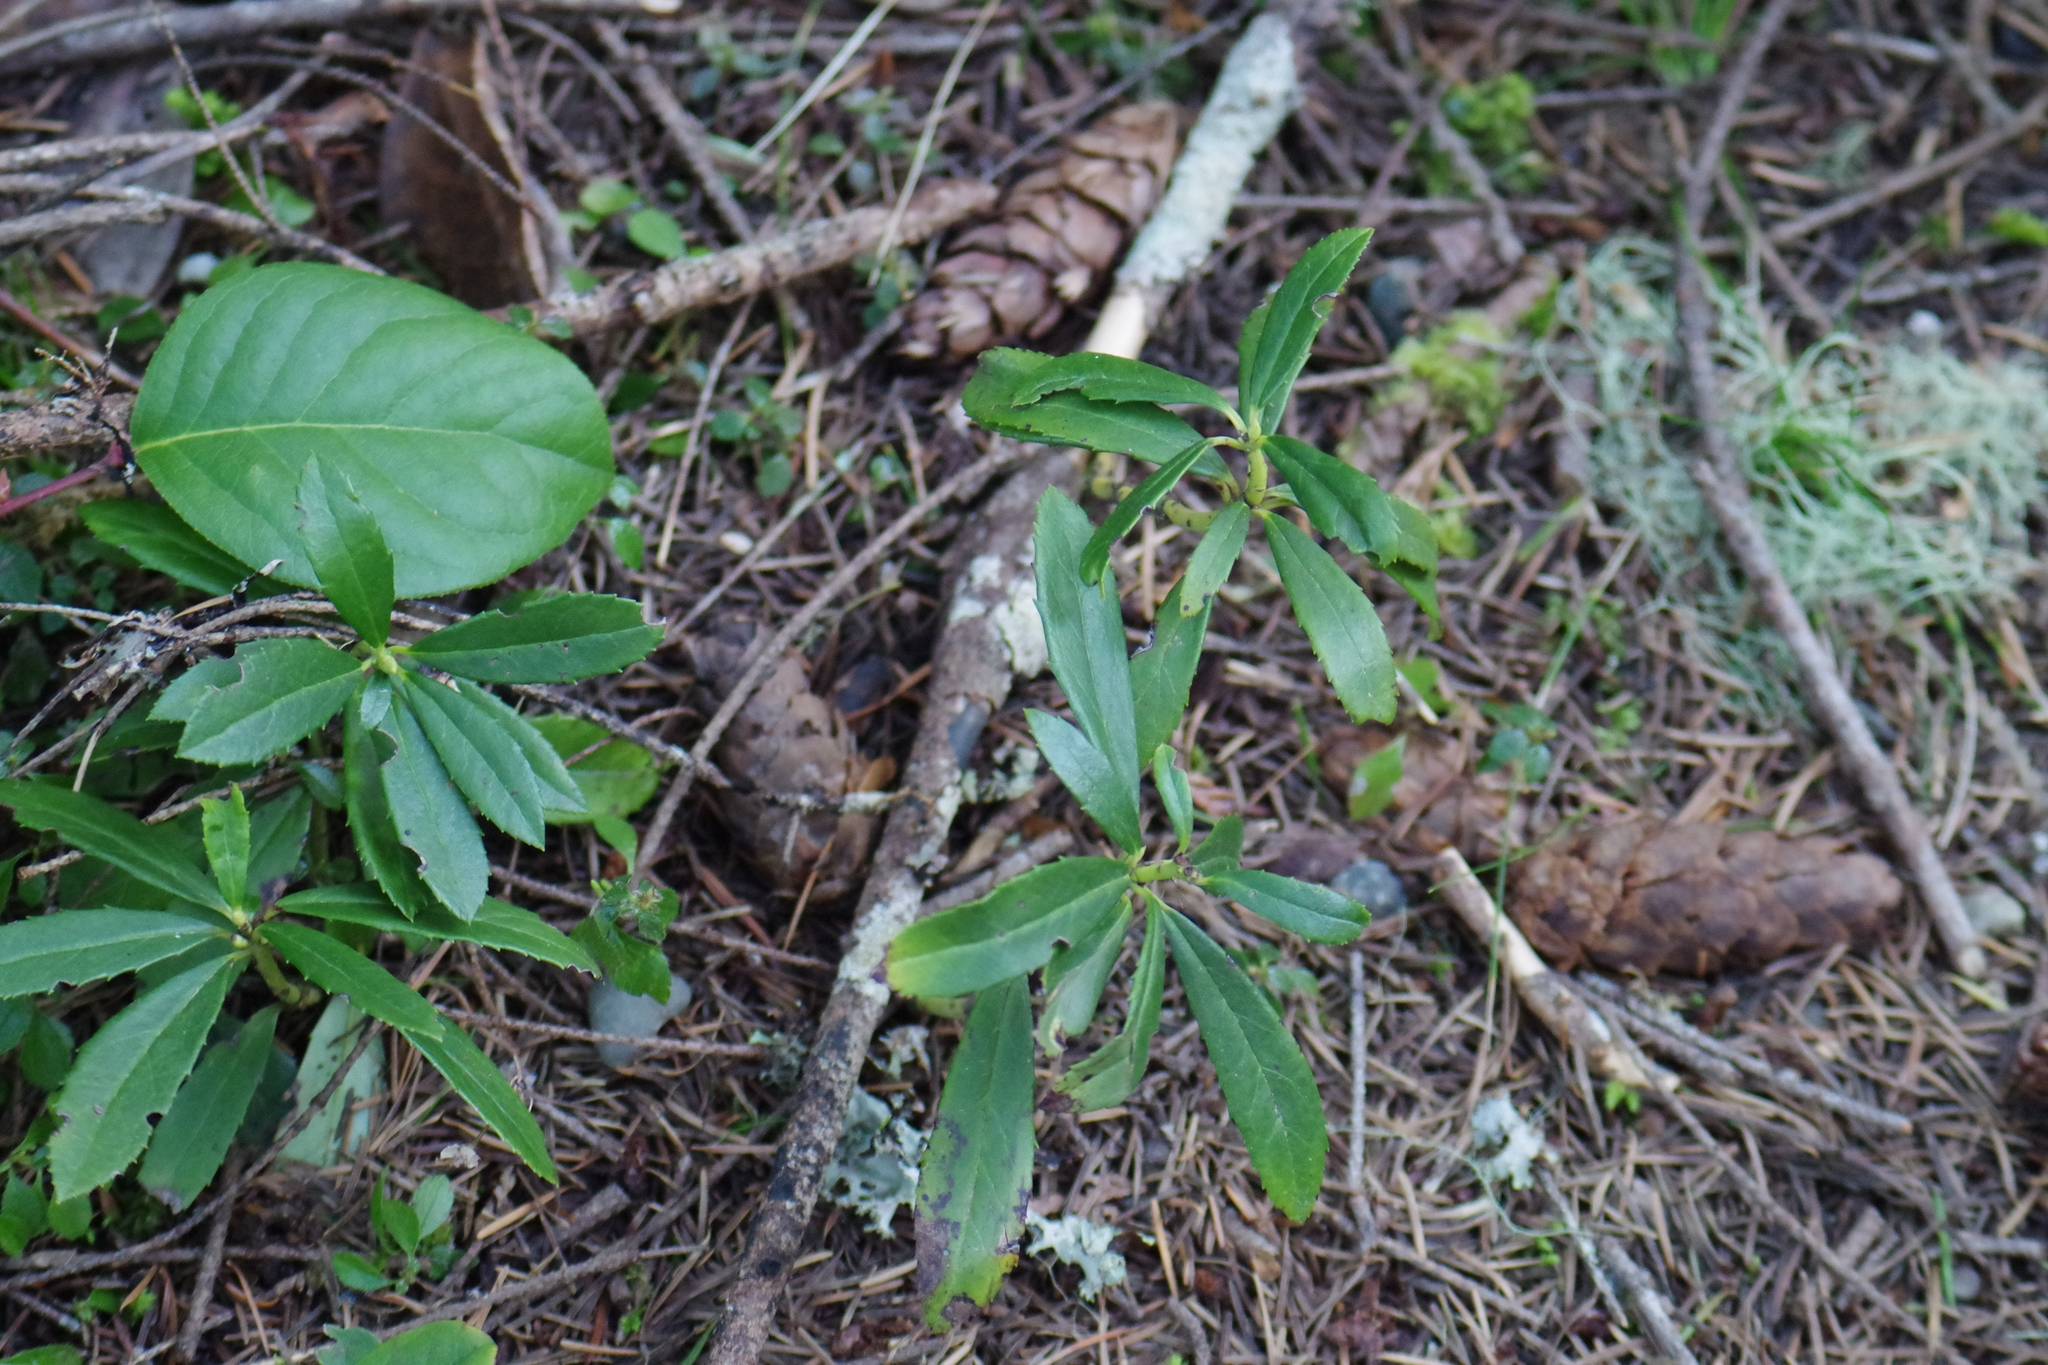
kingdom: Plantae
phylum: Tracheophyta
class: Magnoliopsida
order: Ericales
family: Ericaceae
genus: Chimaphila
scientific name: Chimaphila umbellata
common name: Pipsissewa
